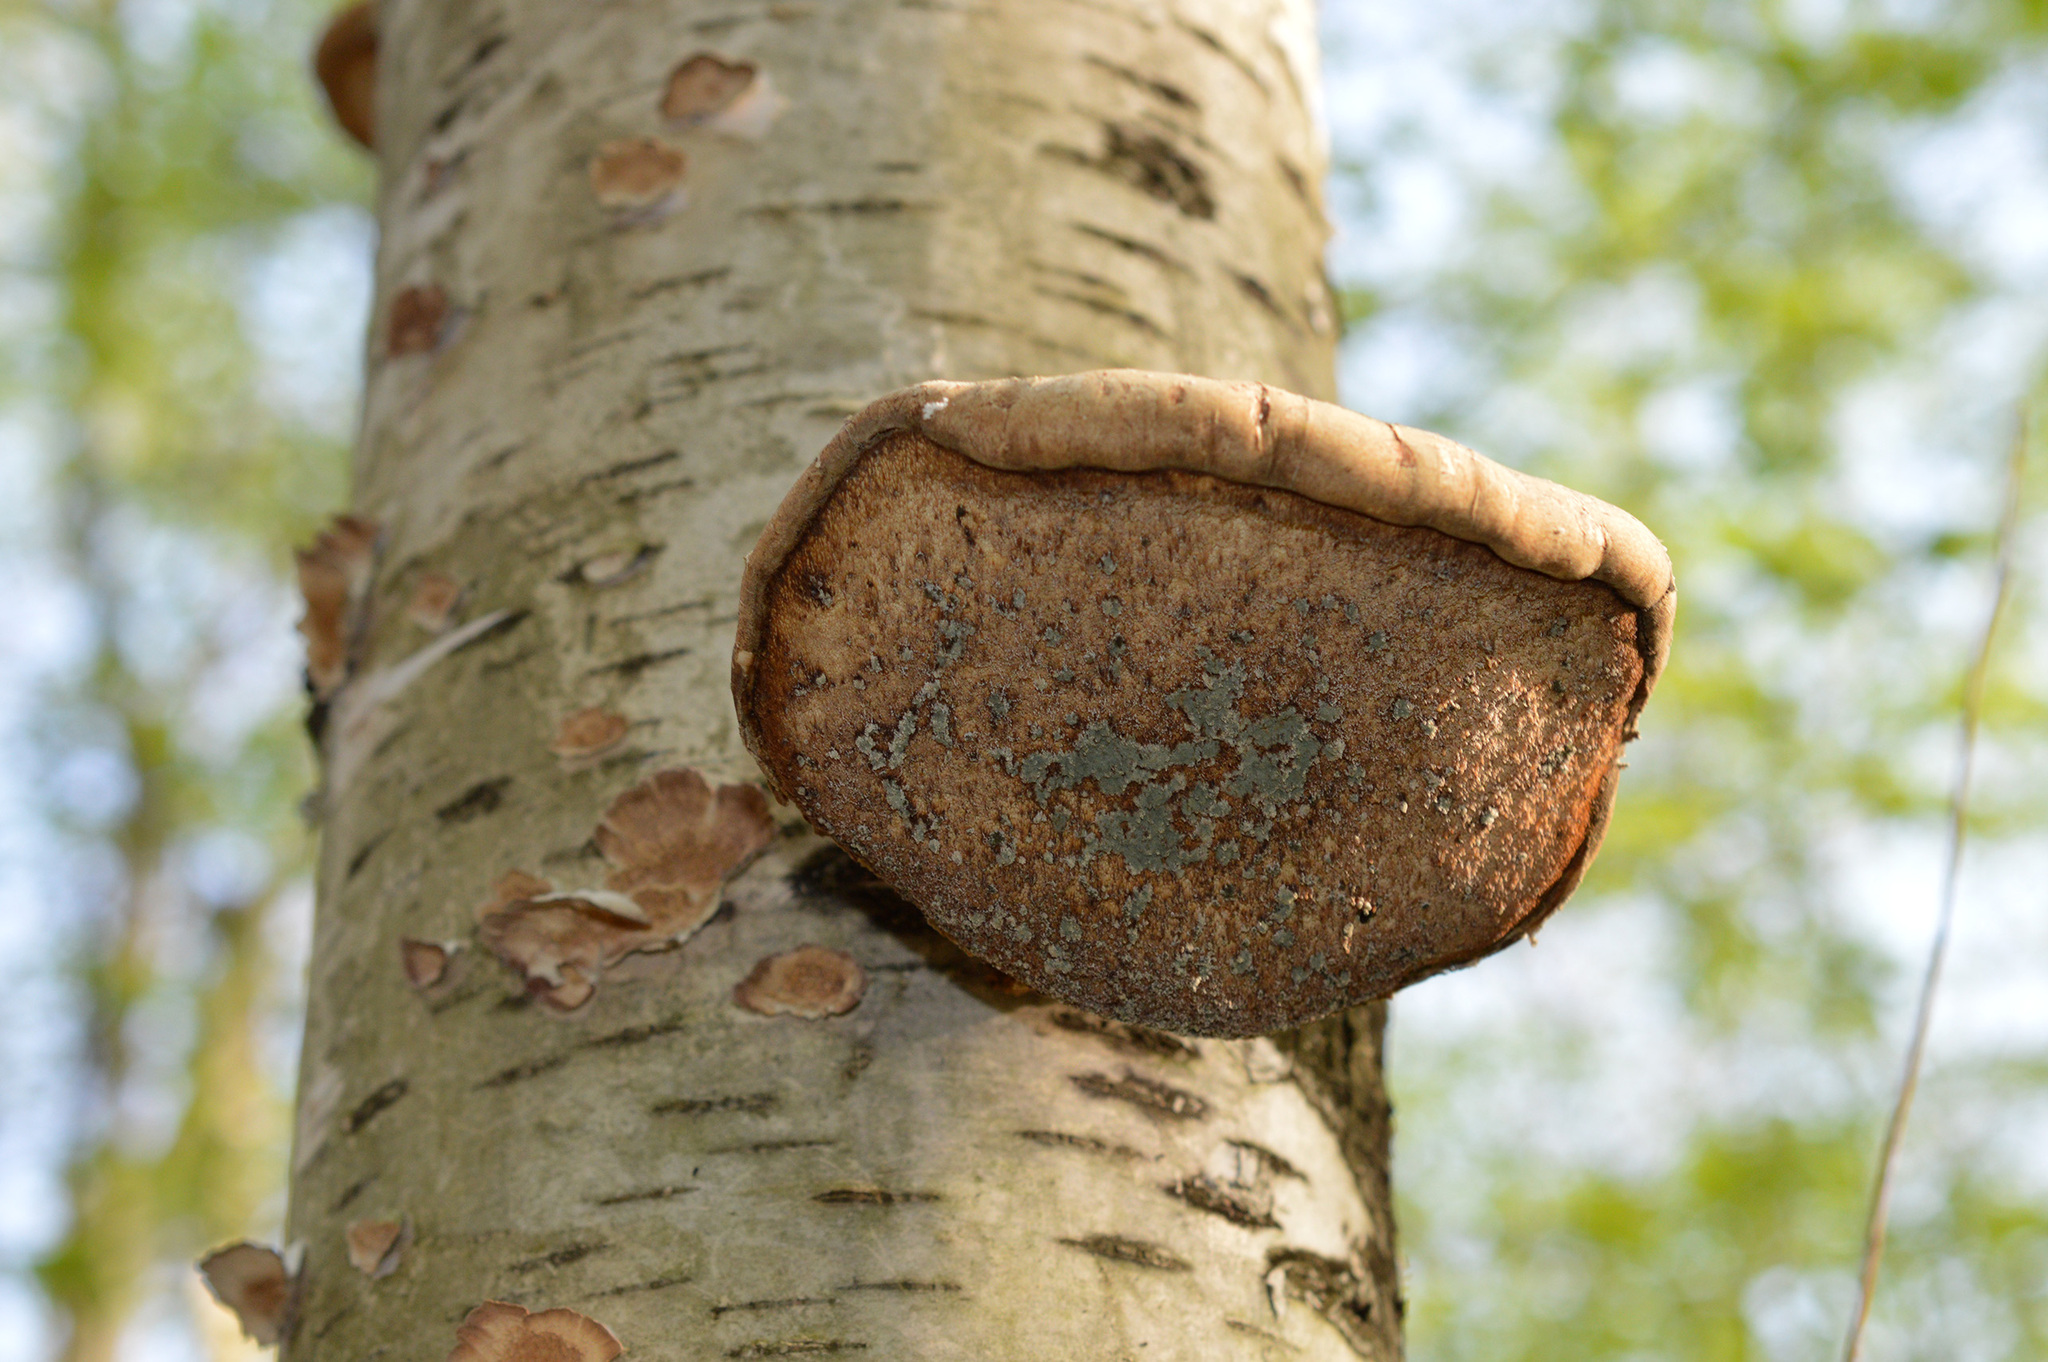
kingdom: Fungi
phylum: Basidiomycota
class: Agaricomycetes
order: Polyporales
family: Fomitopsidaceae
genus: Fomitopsis
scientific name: Fomitopsis betulina
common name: Birch polypore
